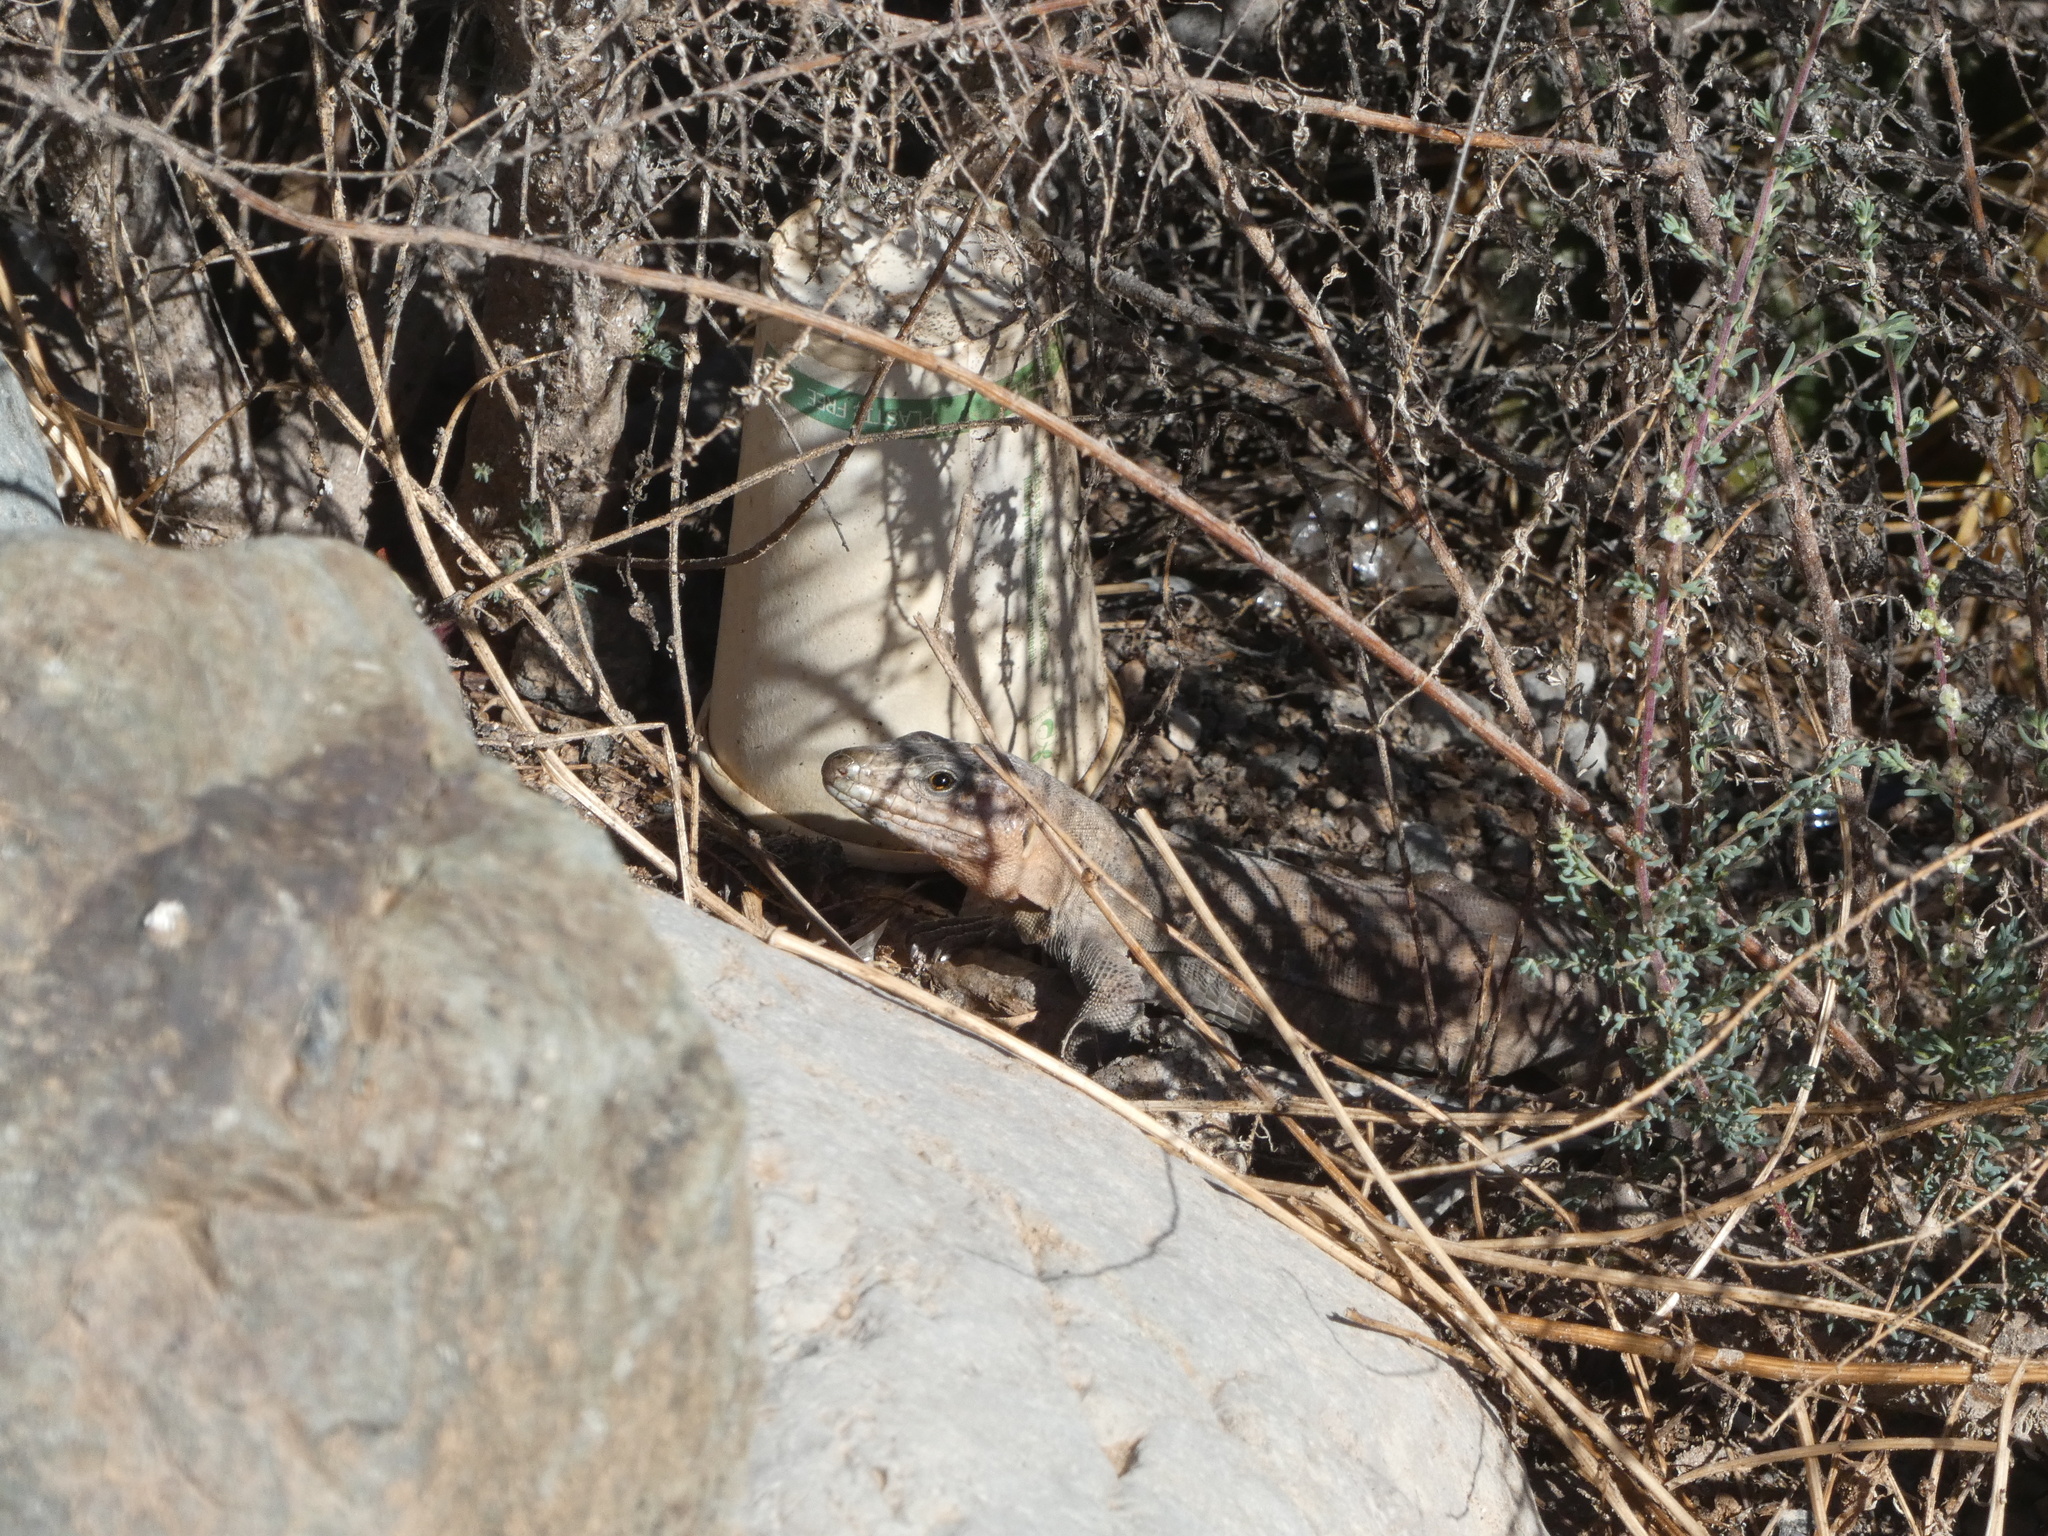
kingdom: Animalia
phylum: Chordata
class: Squamata
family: Lacertidae
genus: Gallotia
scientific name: Gallotia stehlini
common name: Gran canaria giant lizard
